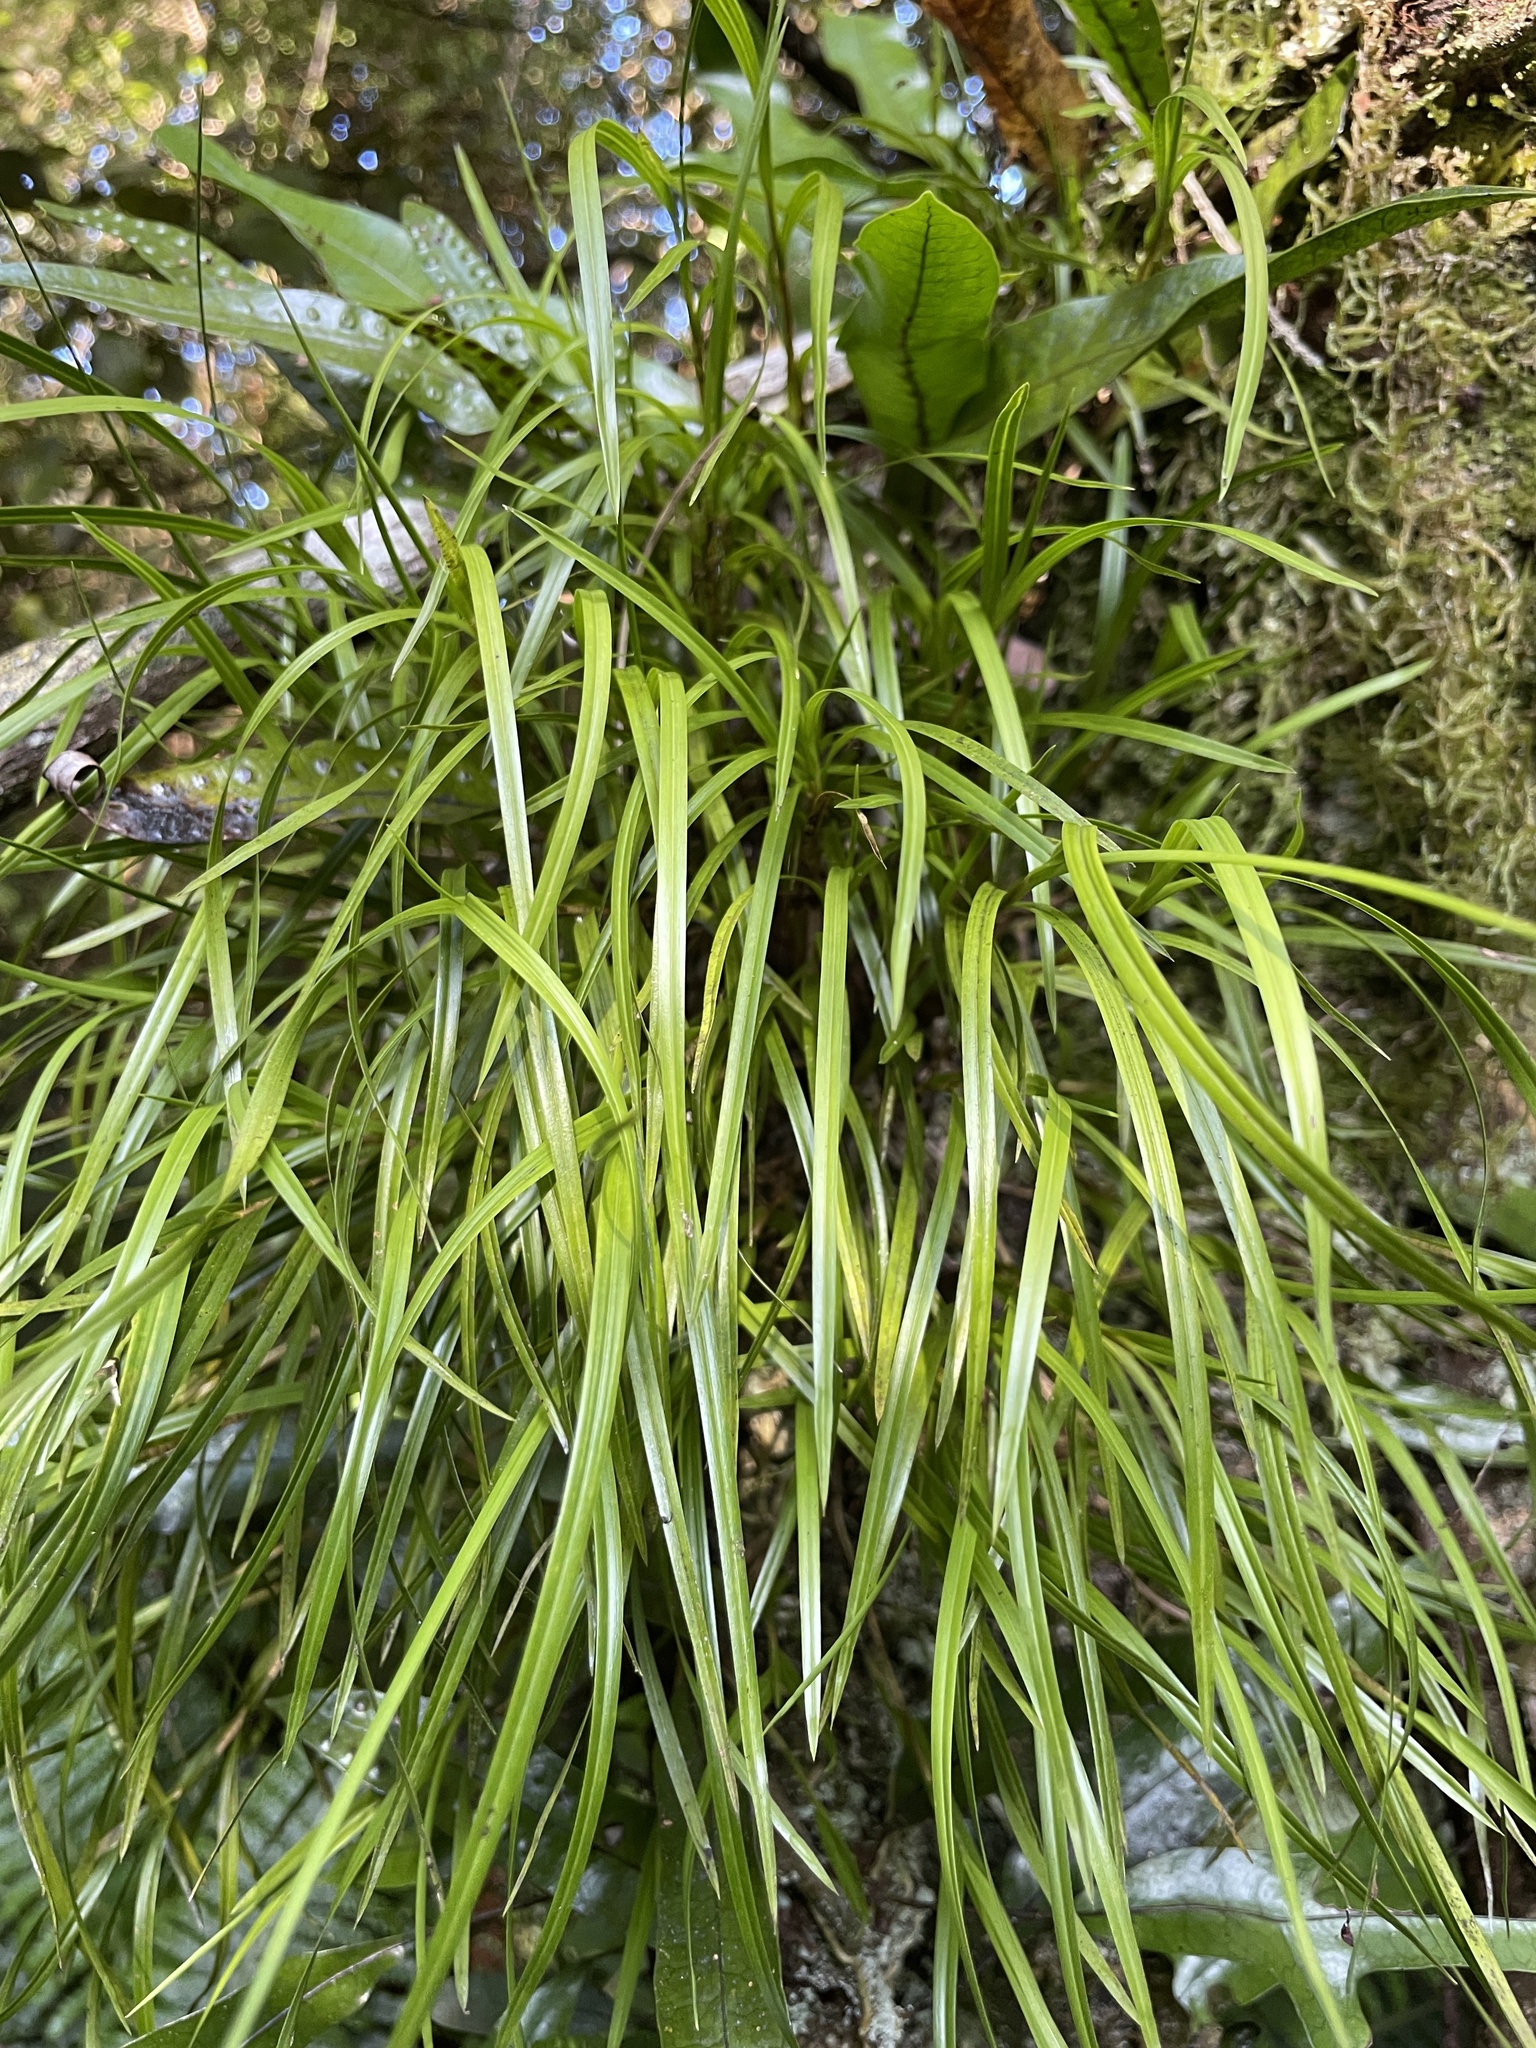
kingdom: Plantae
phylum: Tracheophyta
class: Liliopsida
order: Asparagales
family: Orchidaceae
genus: Earina
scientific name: Earina mucronata
